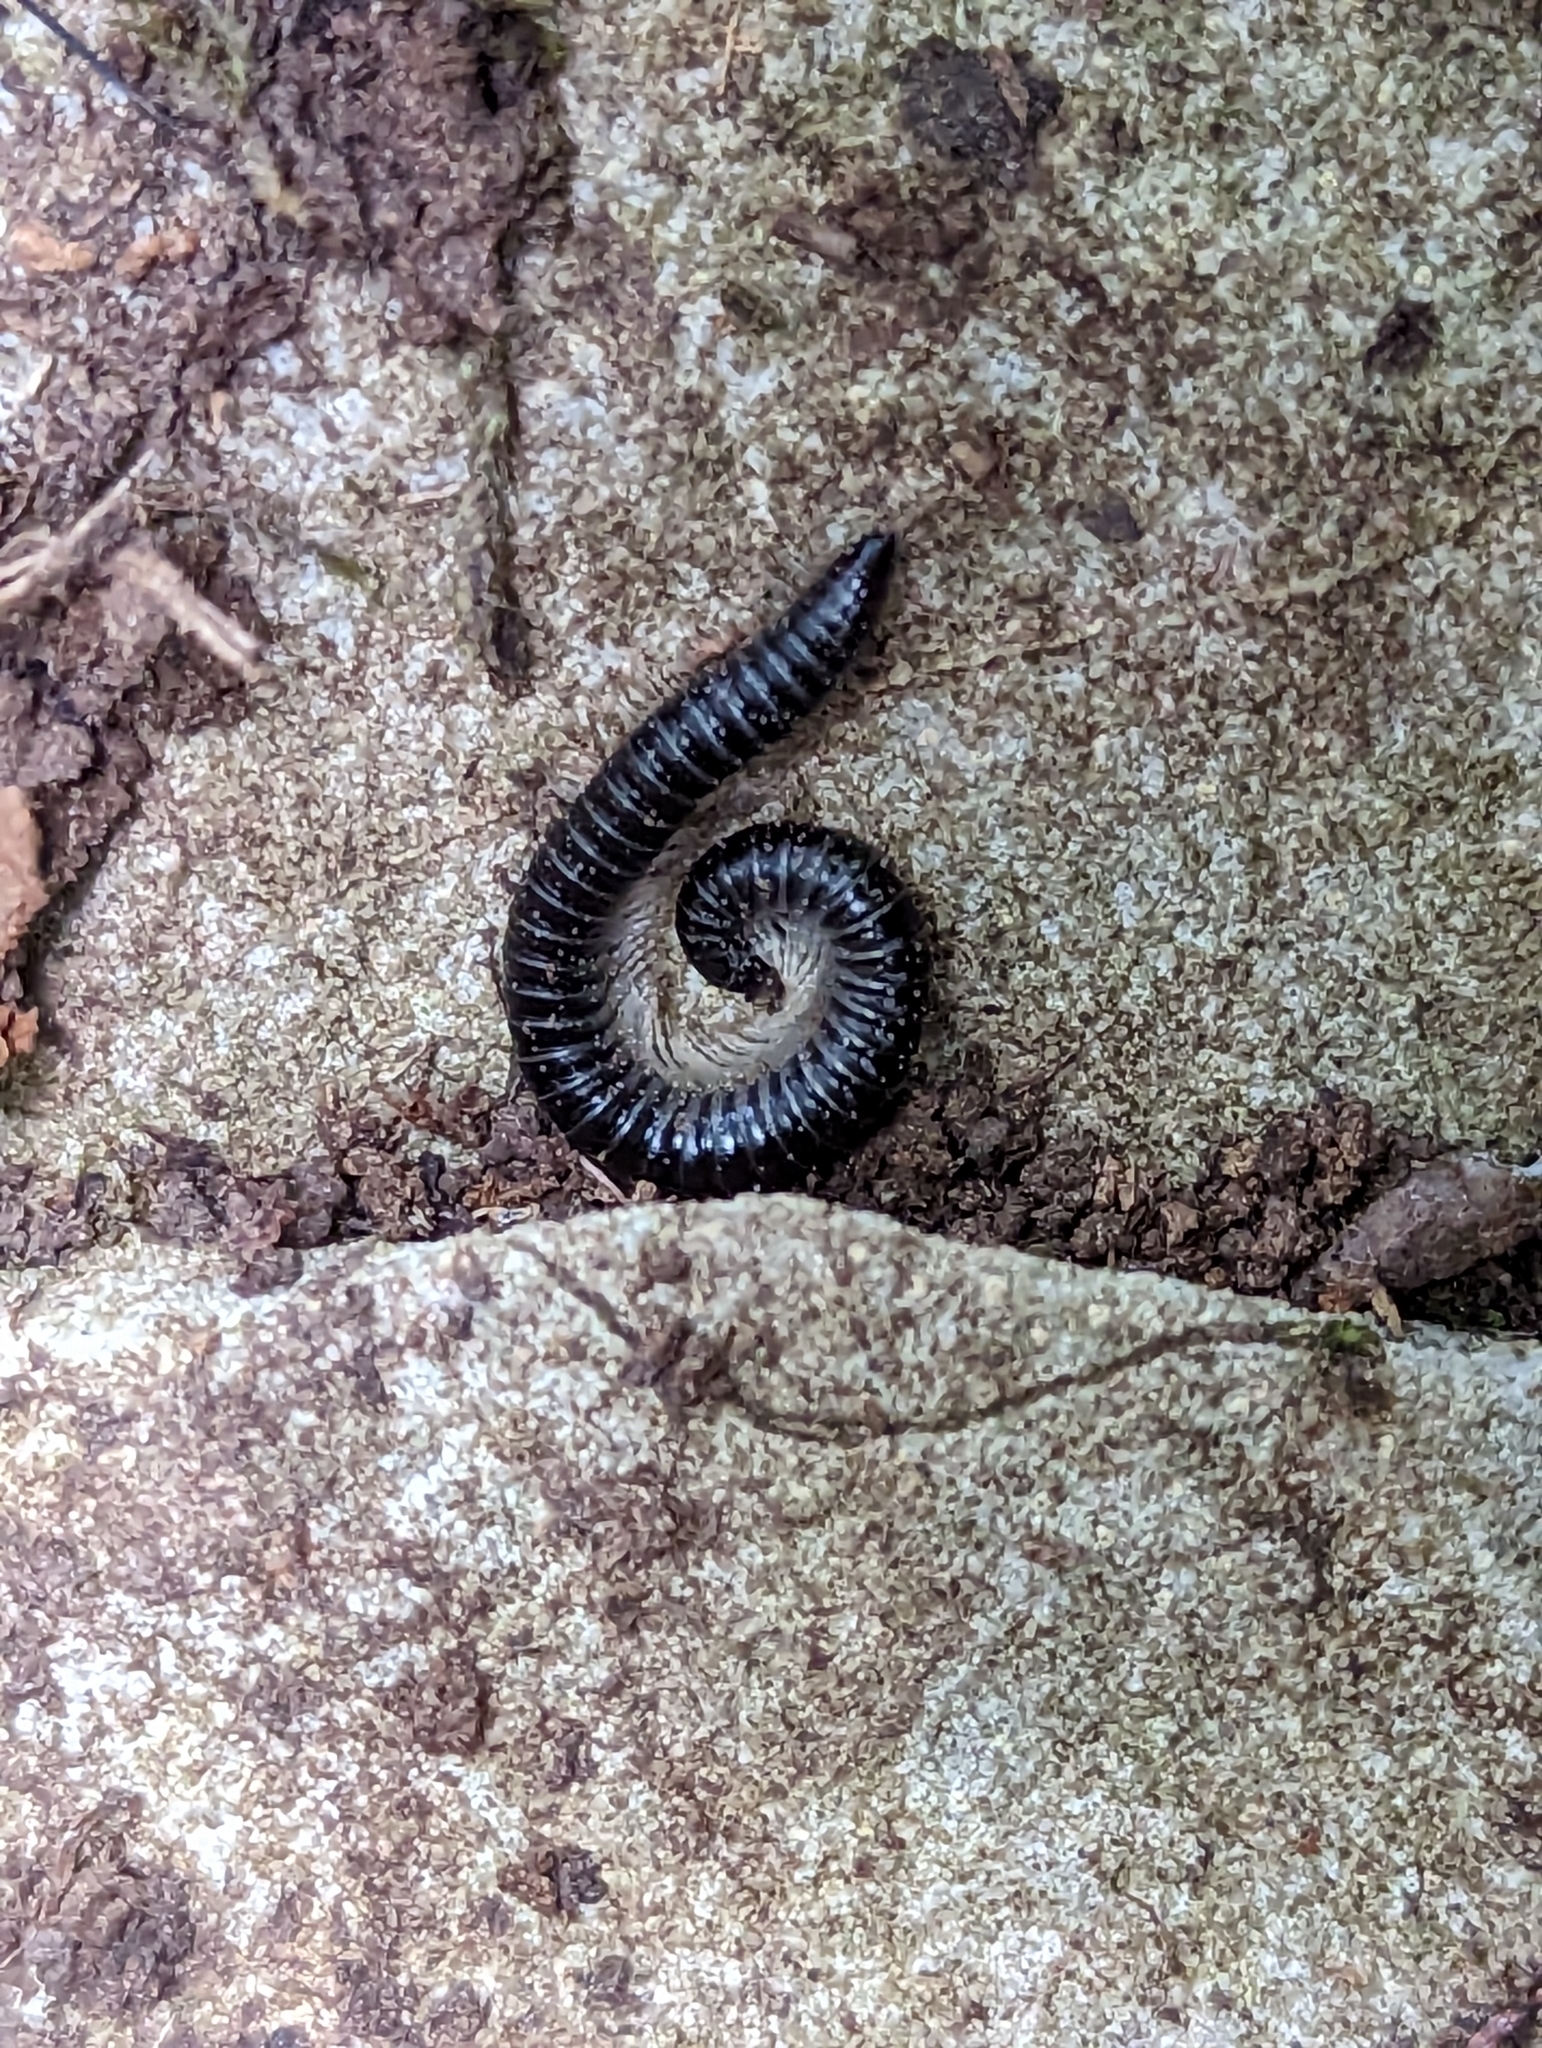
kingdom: Animalia
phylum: Arthropoda
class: Diplopoda
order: Julida
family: Julidae
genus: Tachypodoiulus
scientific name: Tachypodoiulus niger
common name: White-legged snake millipede
